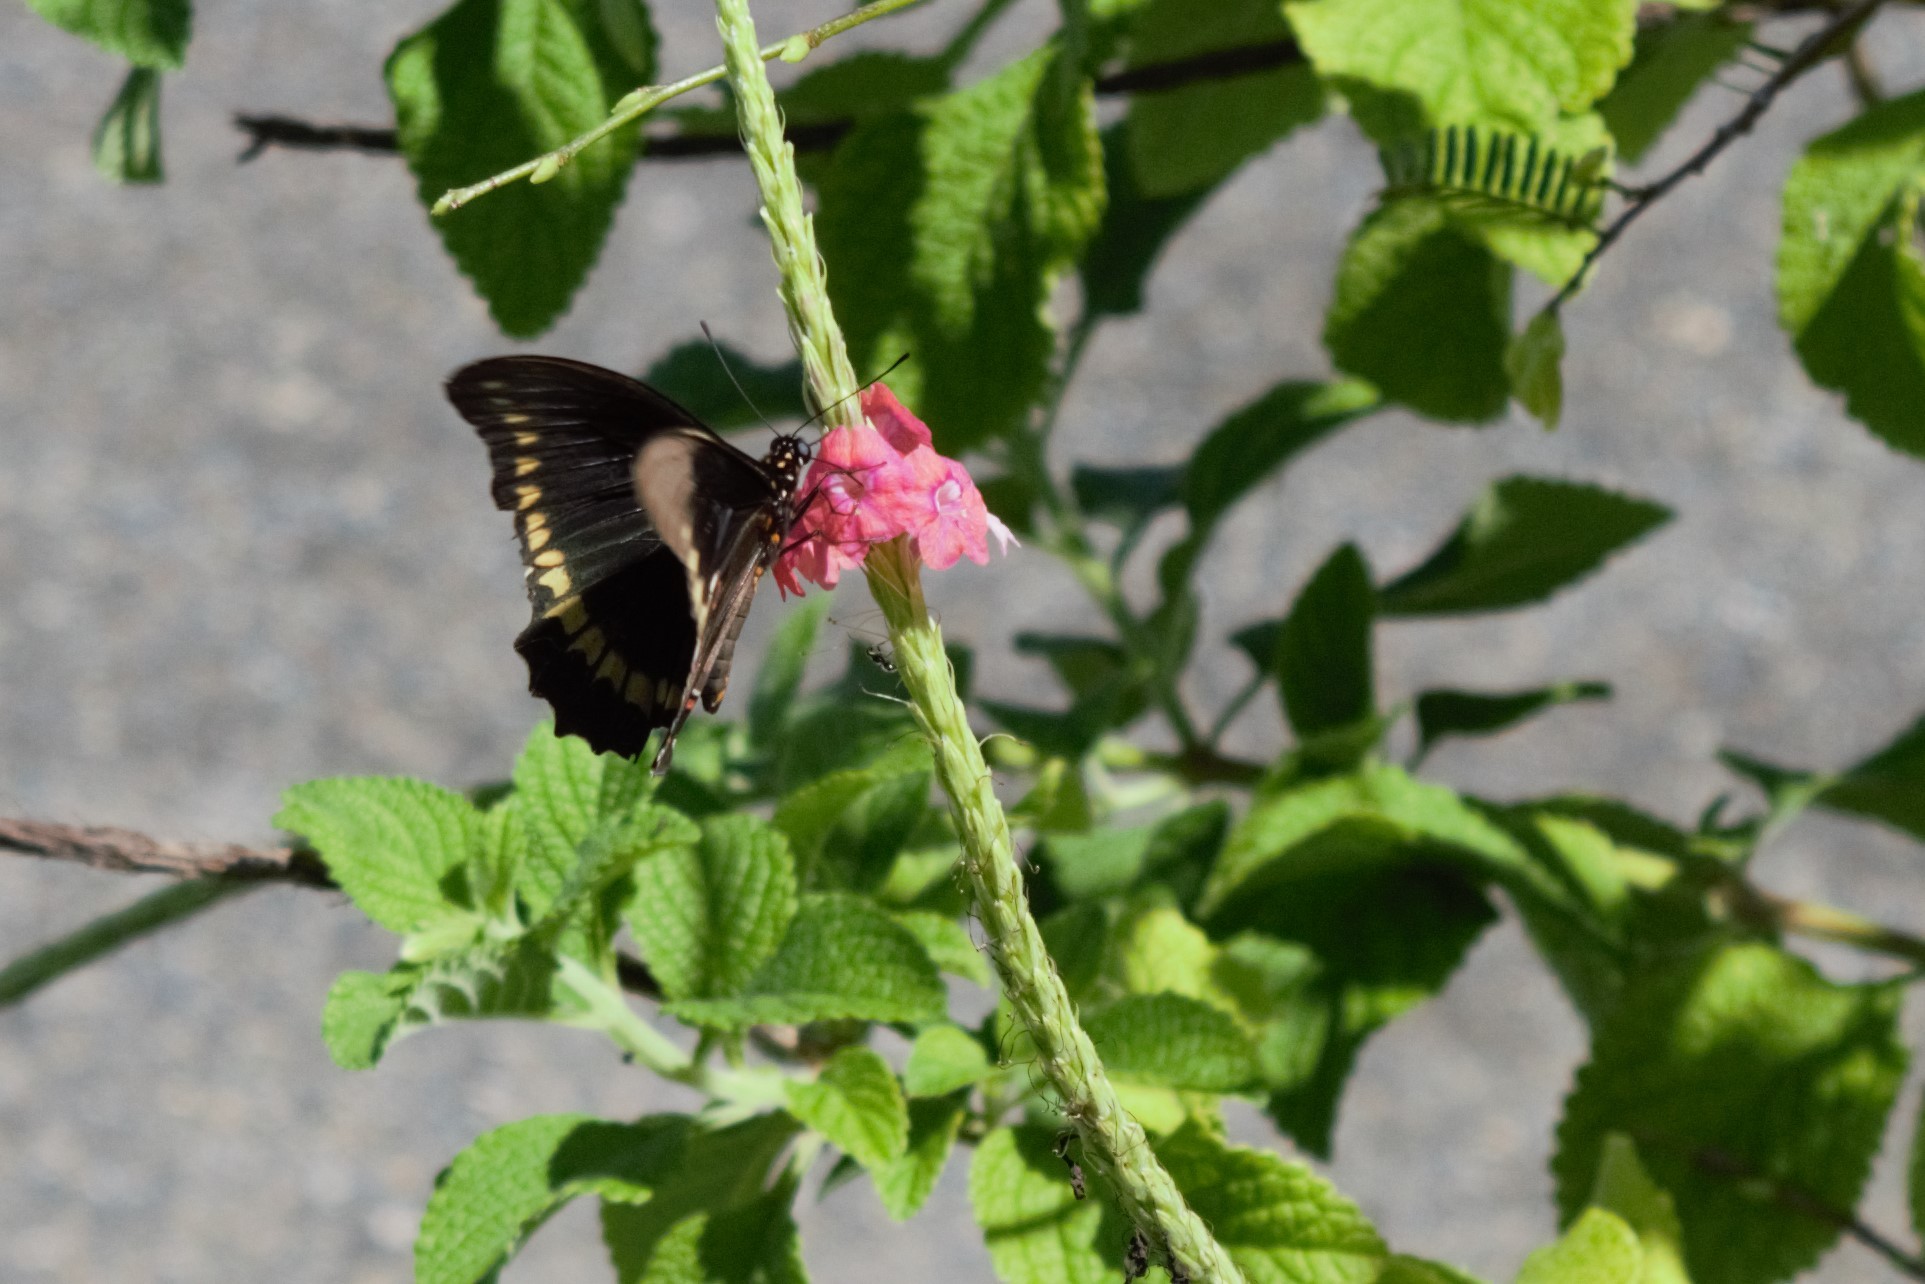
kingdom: Animalia
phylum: Arthropoda
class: Insecta
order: Lepidoptera
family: Papilionidae
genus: Battus
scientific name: Battus polydamas
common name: Polydamas swallowtail
